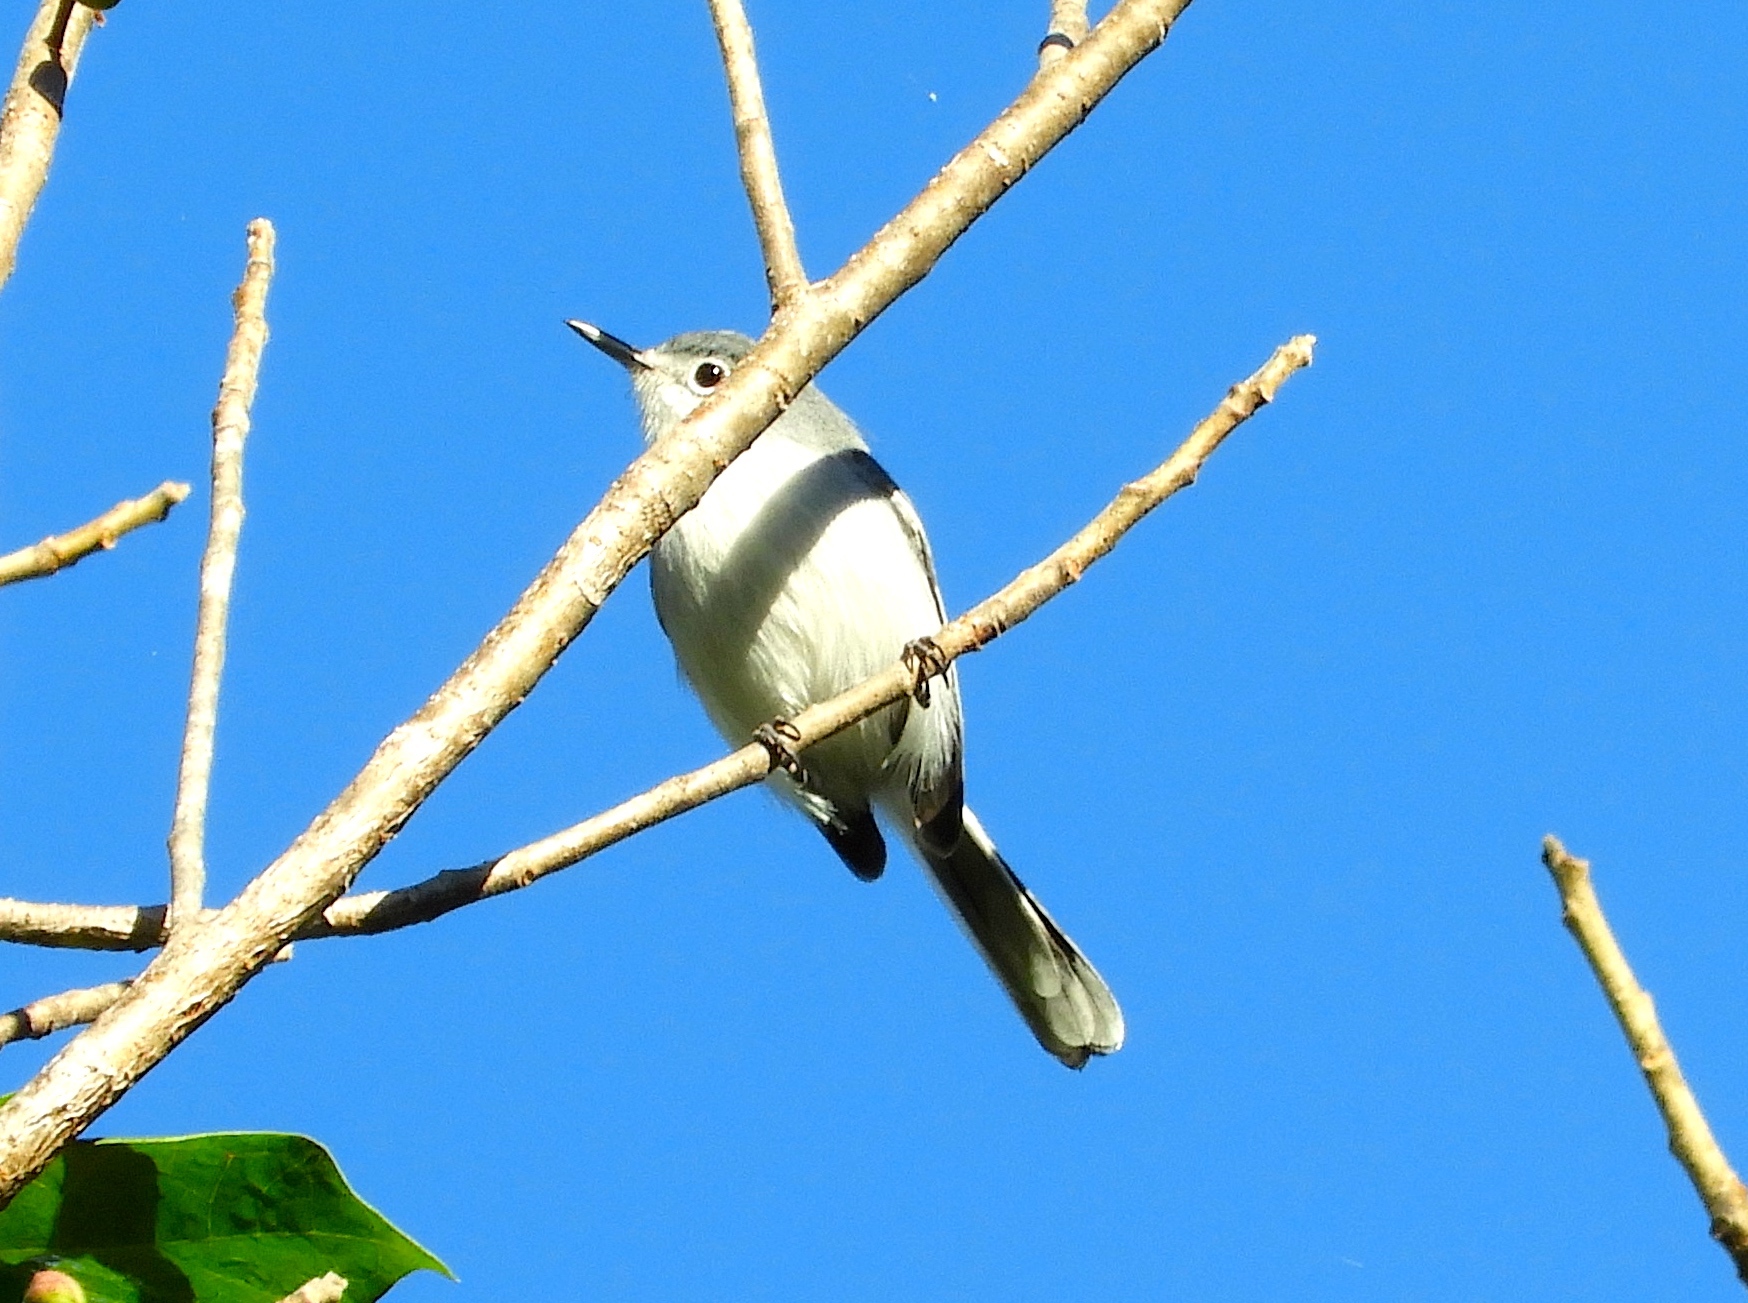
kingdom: Animalia
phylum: Chordata
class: Aves
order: Passeriformes
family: Polioptilidae
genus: Polioptila
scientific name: Polioptila
